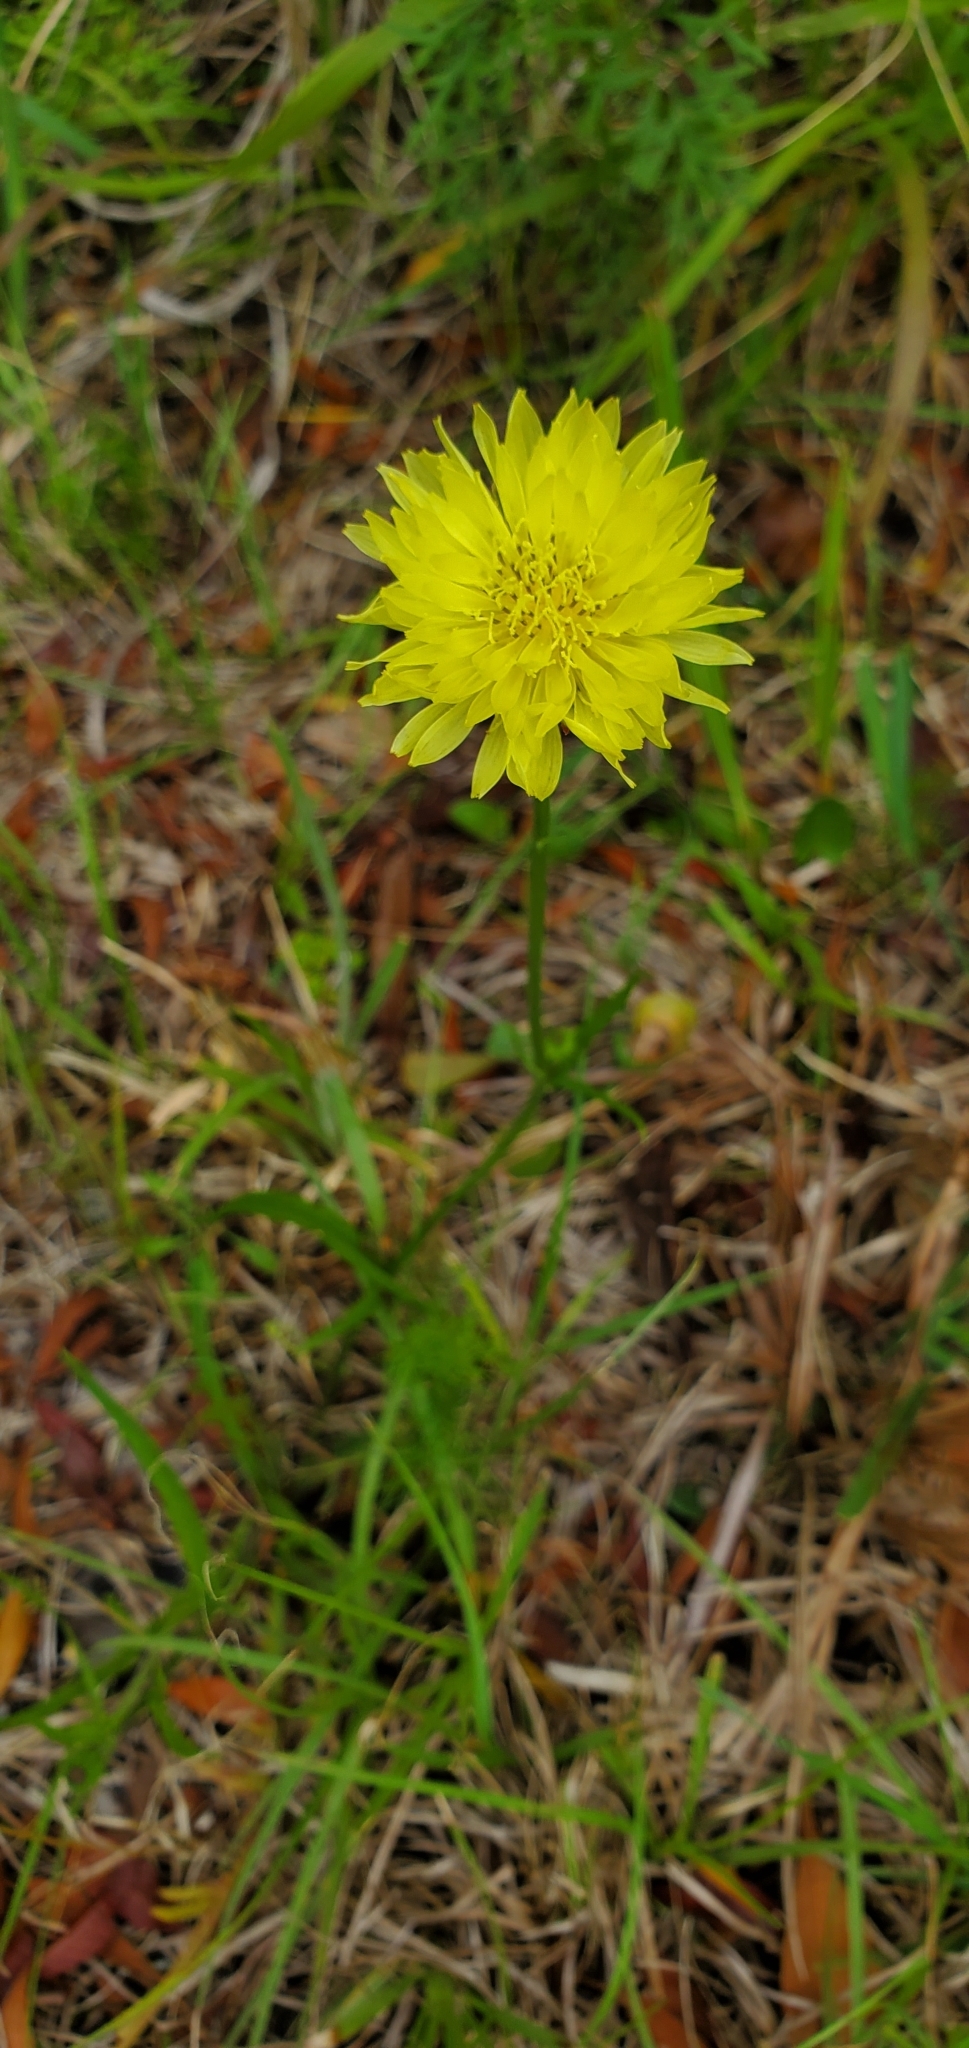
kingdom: Plantae
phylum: Tracheophyta
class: Magnoliopsida
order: Asterales
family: Asteraceae
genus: Pyrrhopappus
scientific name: Pyrrhopappus carolinianus
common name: Carolina desert-chicory
